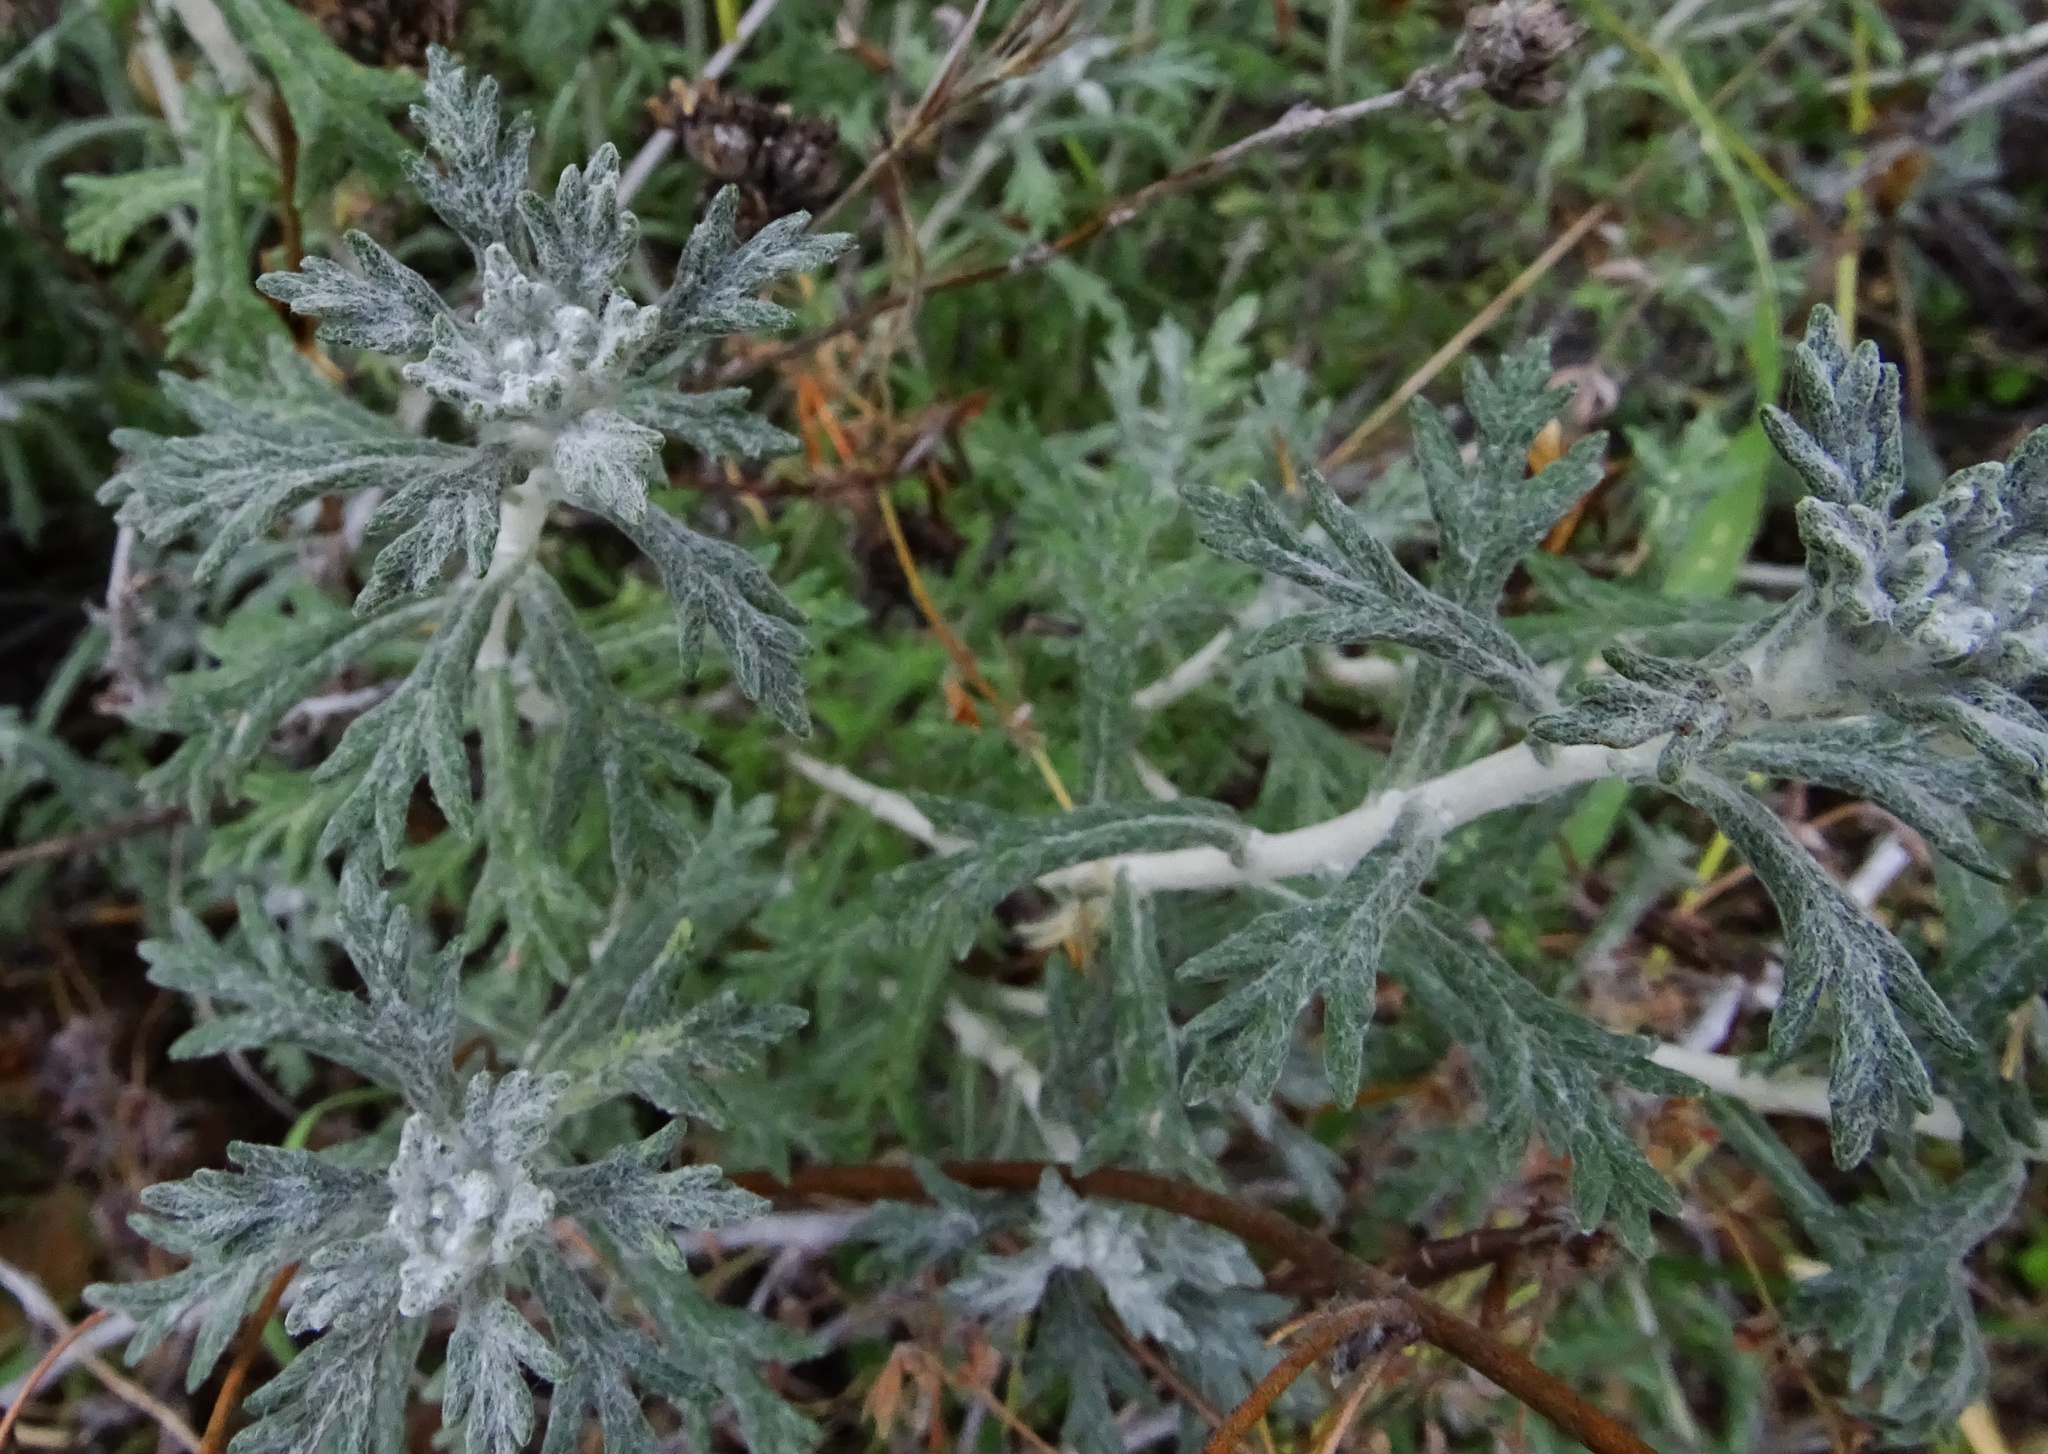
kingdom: Plantae
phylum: Tracheophyta
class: Magnoliopsida
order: Asterales
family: Asteraceae
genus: Eriophyllum
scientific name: Eriophyllum confertiflorum
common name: Golden-yarrow
